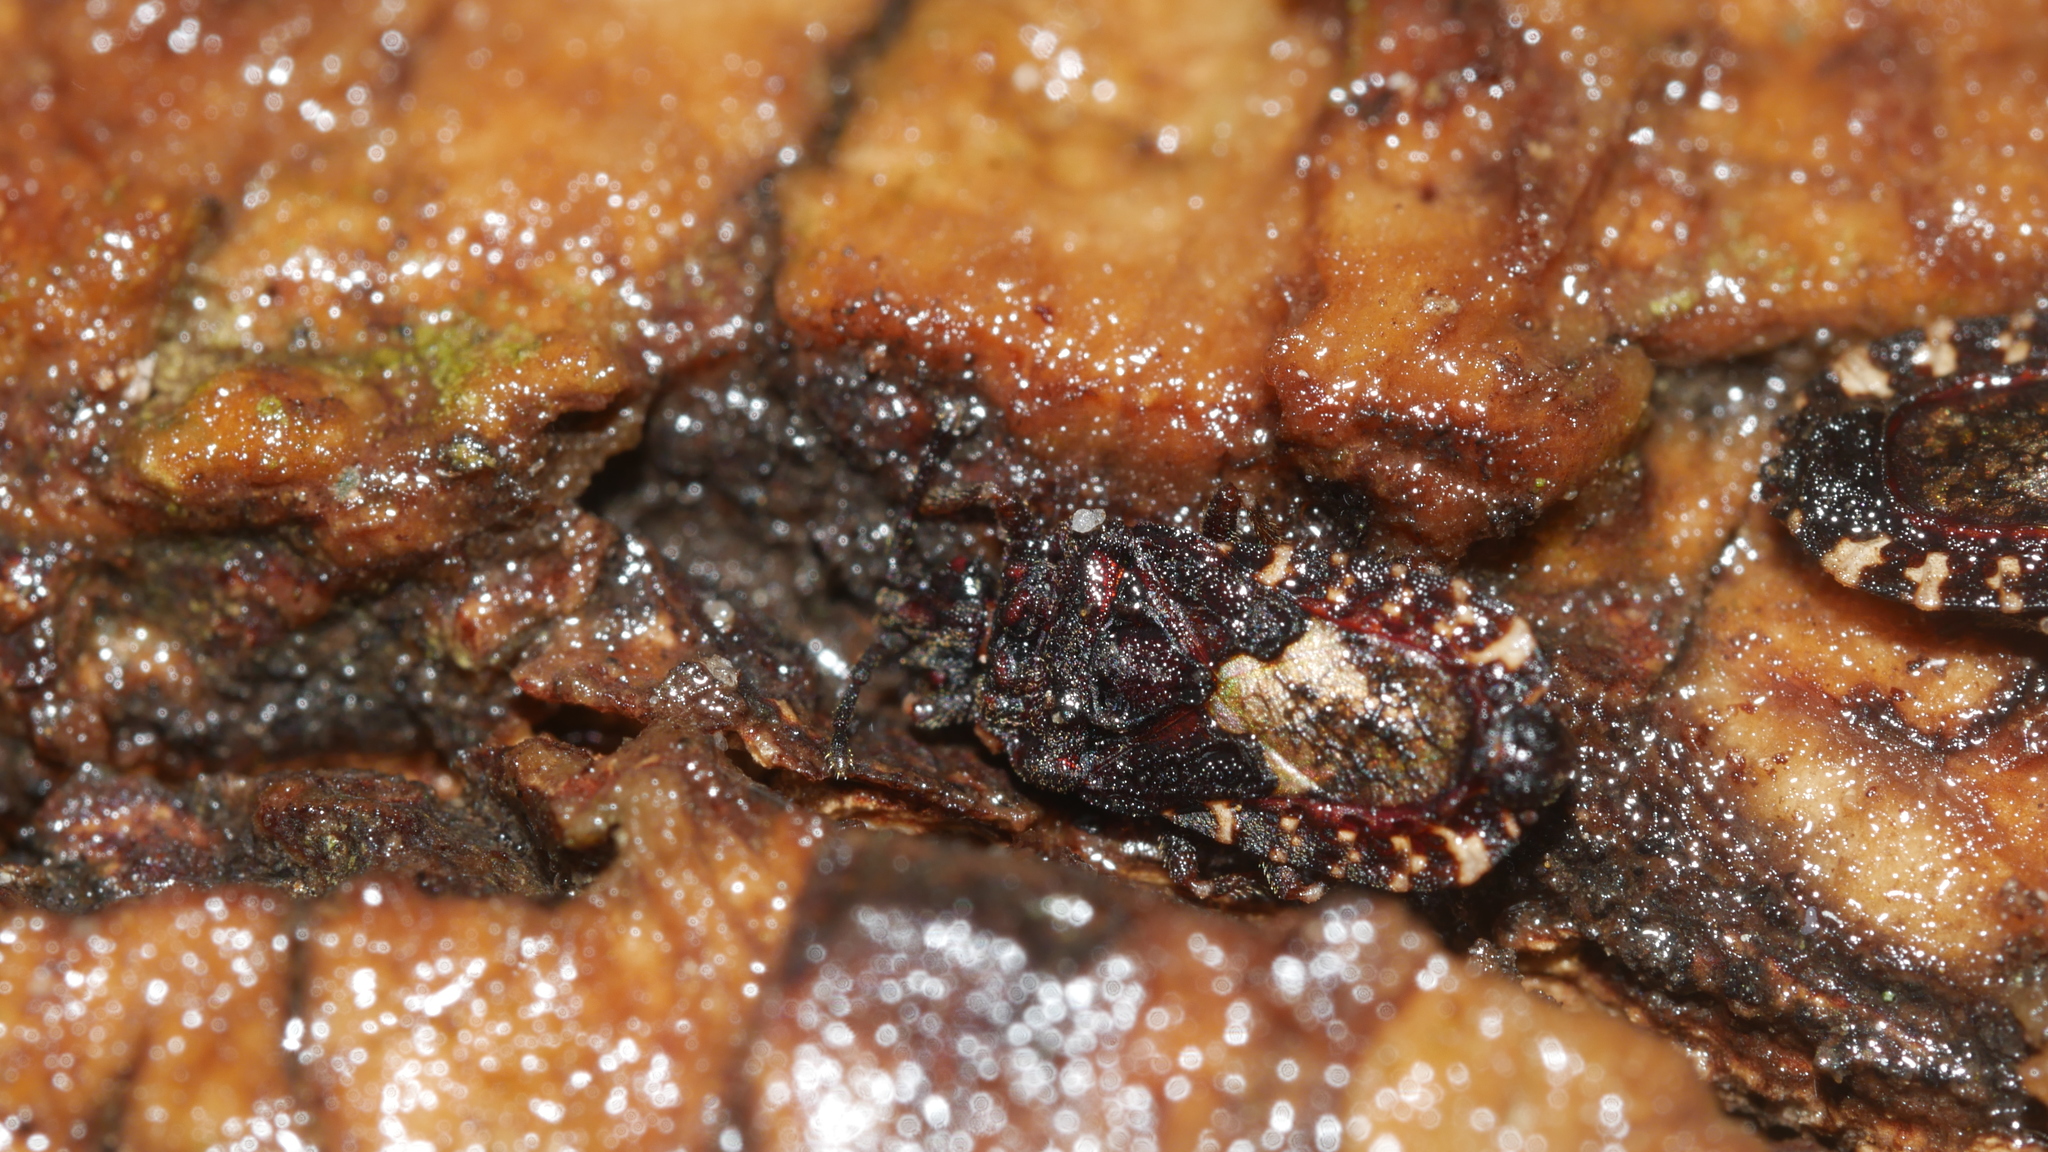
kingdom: Animalia
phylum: Arthropoda
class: Insecta
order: Hemiptera
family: Aradidae
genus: Mezira
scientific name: Mezira
